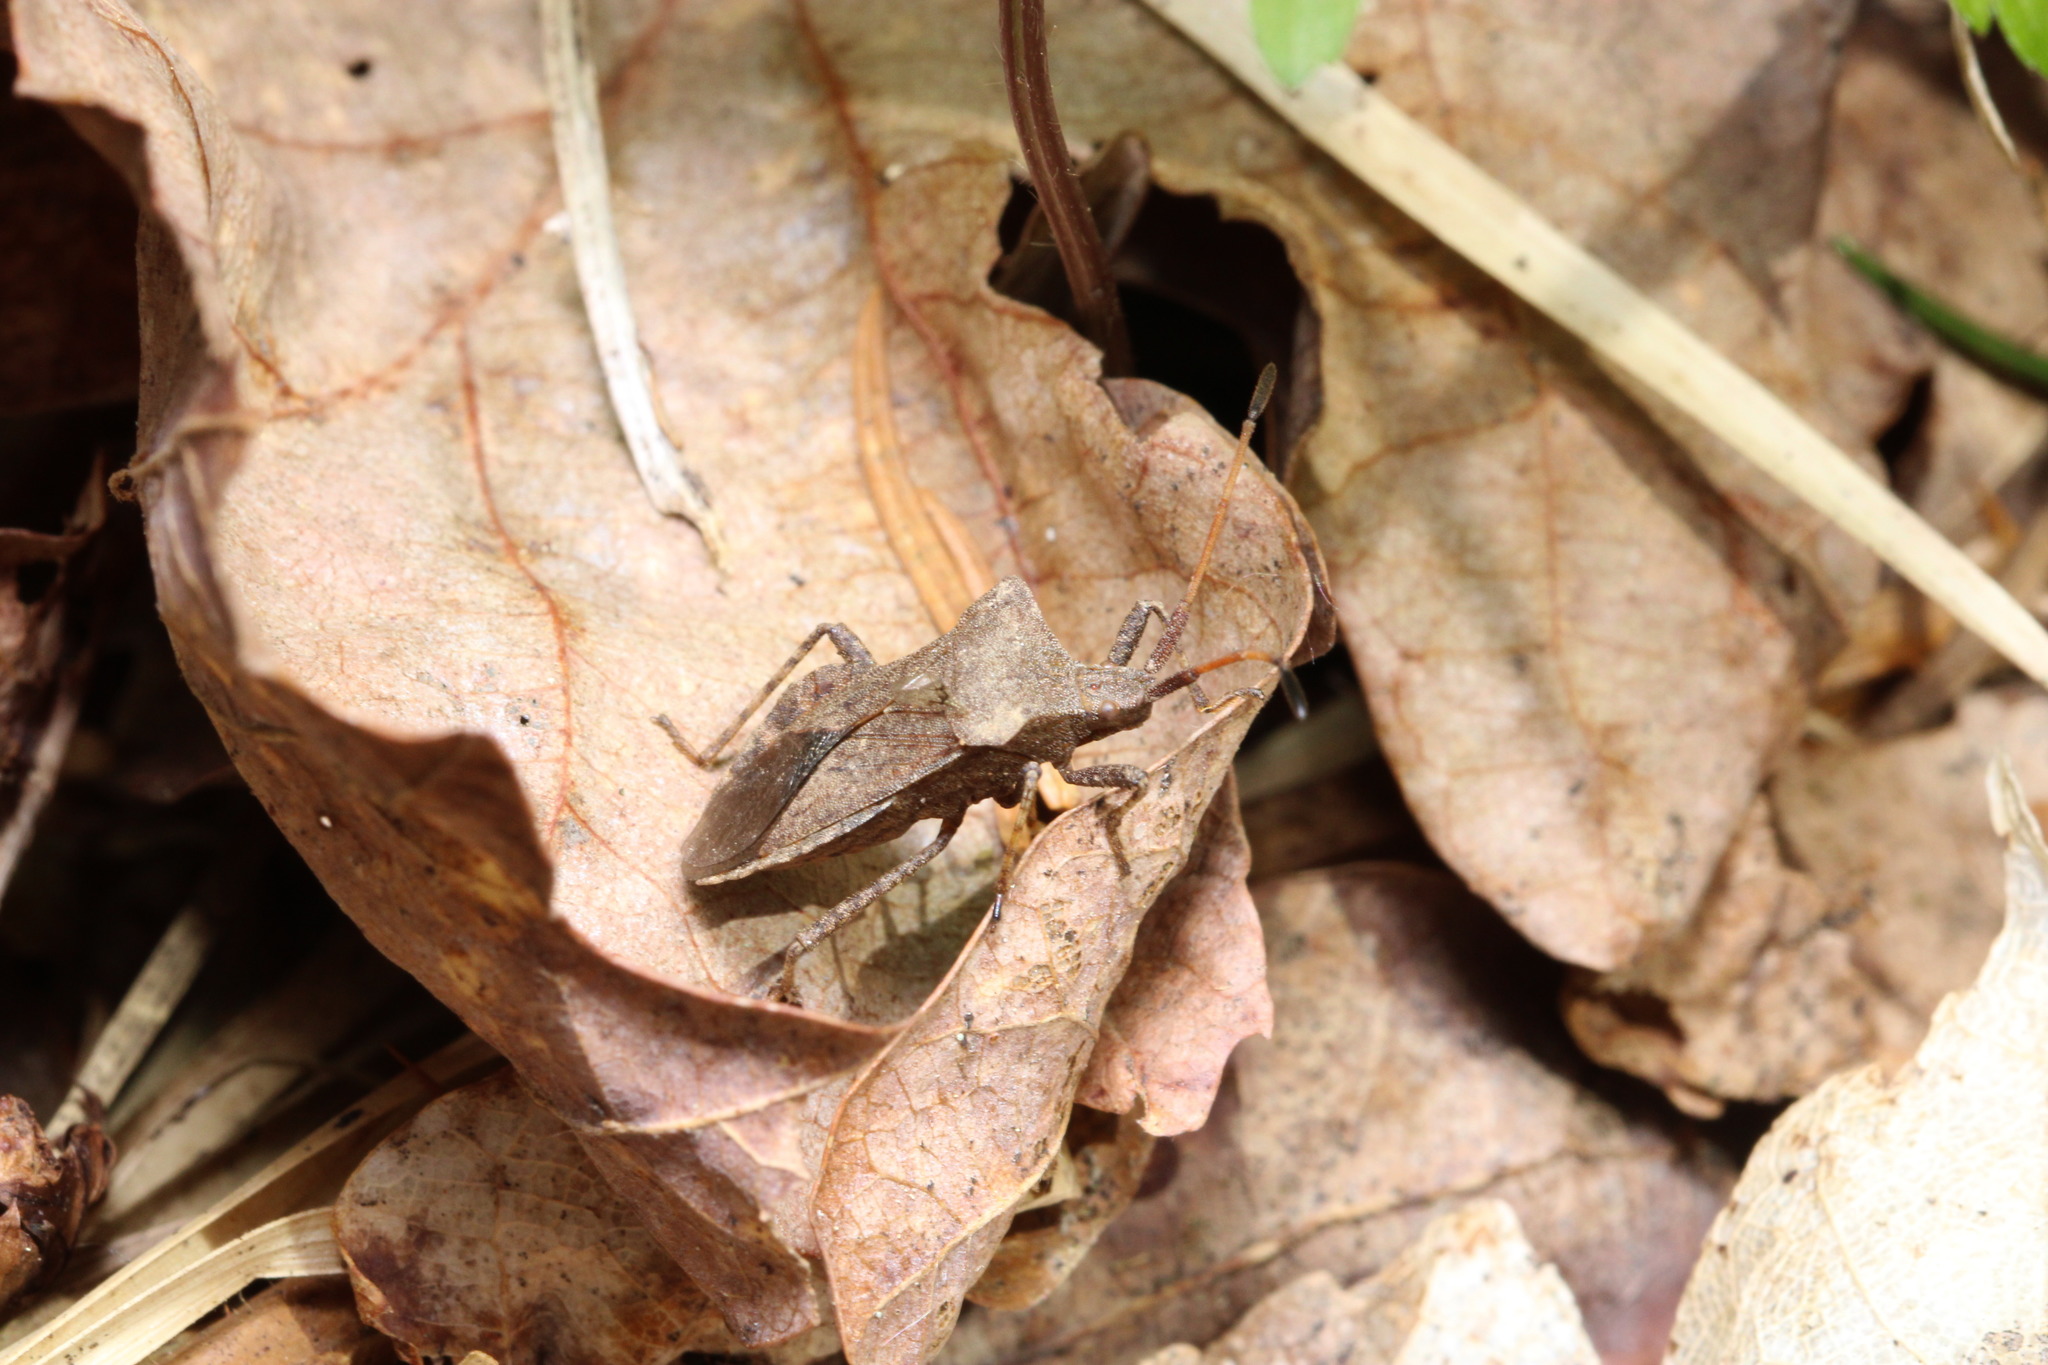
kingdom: Animalia
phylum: Arthropoda
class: Insecta
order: Hemiptera
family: Coreidae
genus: Coreus
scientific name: Coreus marginatus
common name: Dock bug
